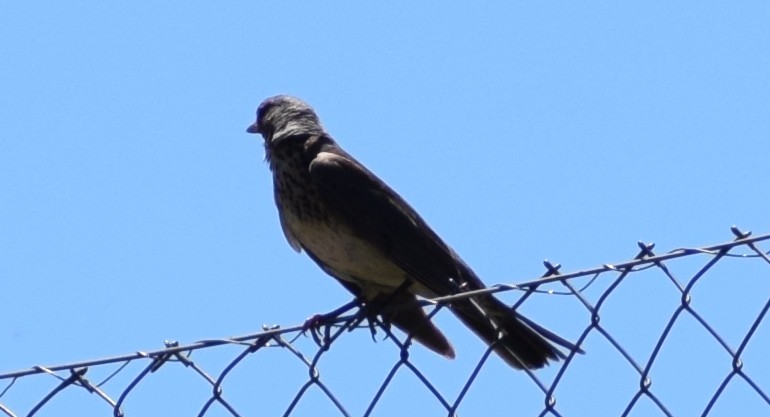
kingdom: Animalia
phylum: Chordata
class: Aves
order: Passeriformes
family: Turdidae
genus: Turdus
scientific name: Turdus pilaris
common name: Fieldfare
